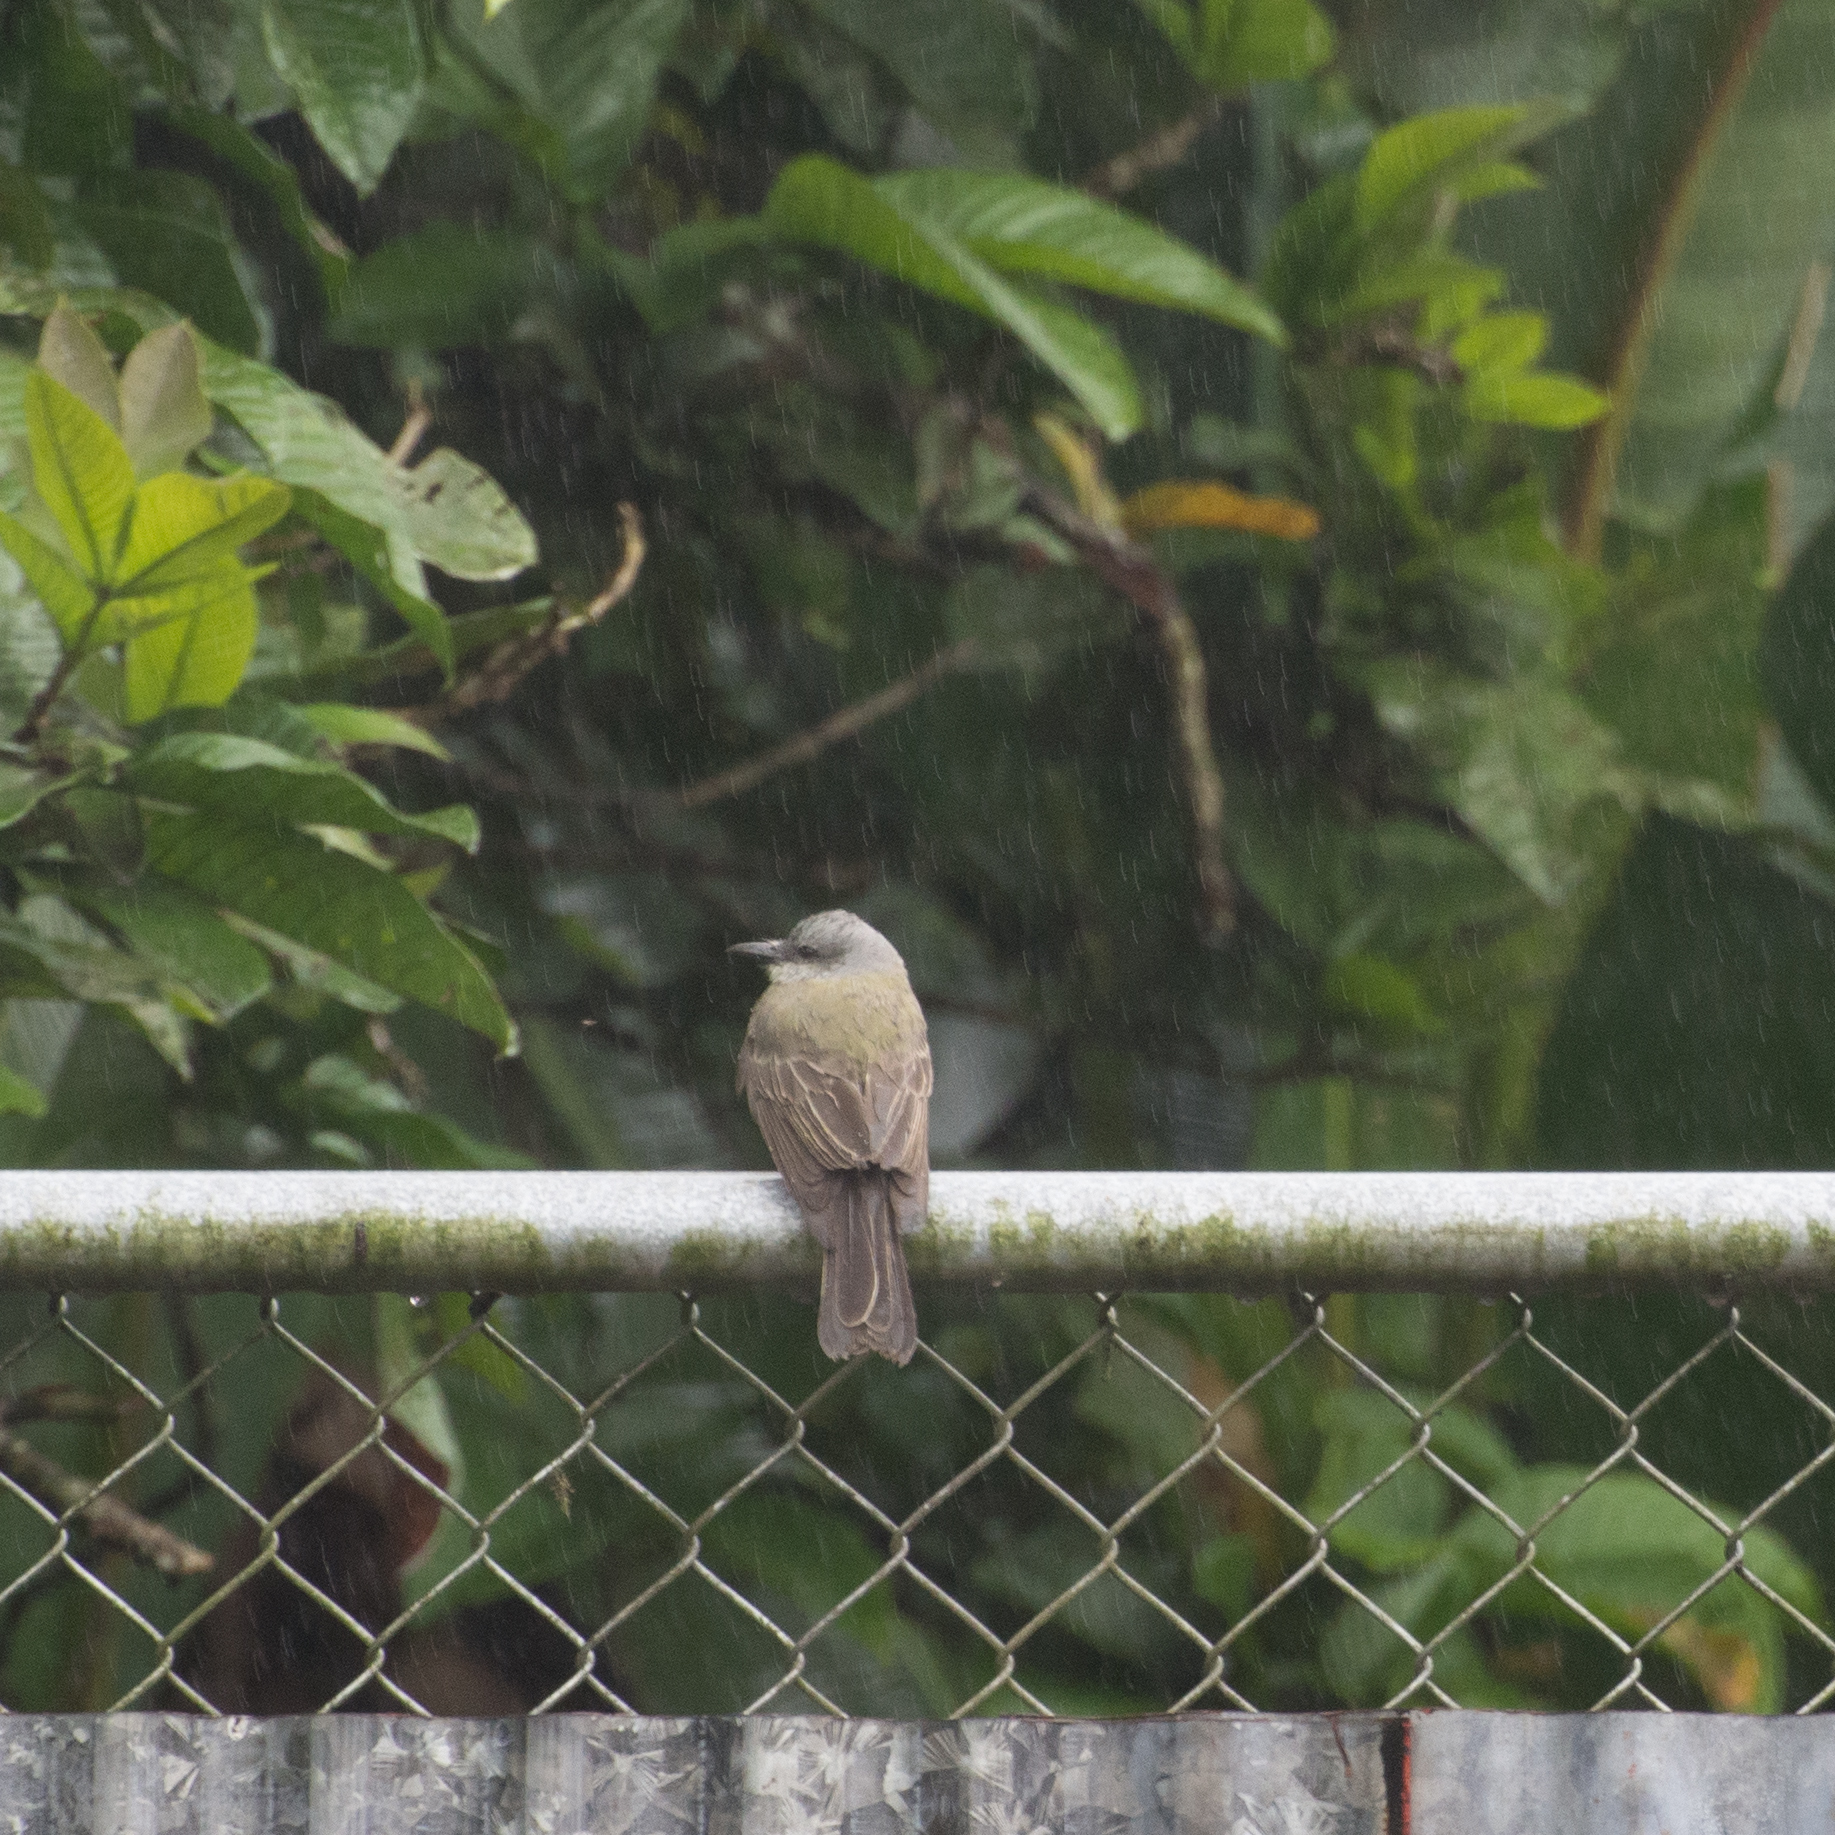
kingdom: Animalia
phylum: Chordata
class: Aves
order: Passeriformes
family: Tyrannidae
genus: Tyrannus
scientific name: Tyrannus melancholicus
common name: Tropical kingbird
